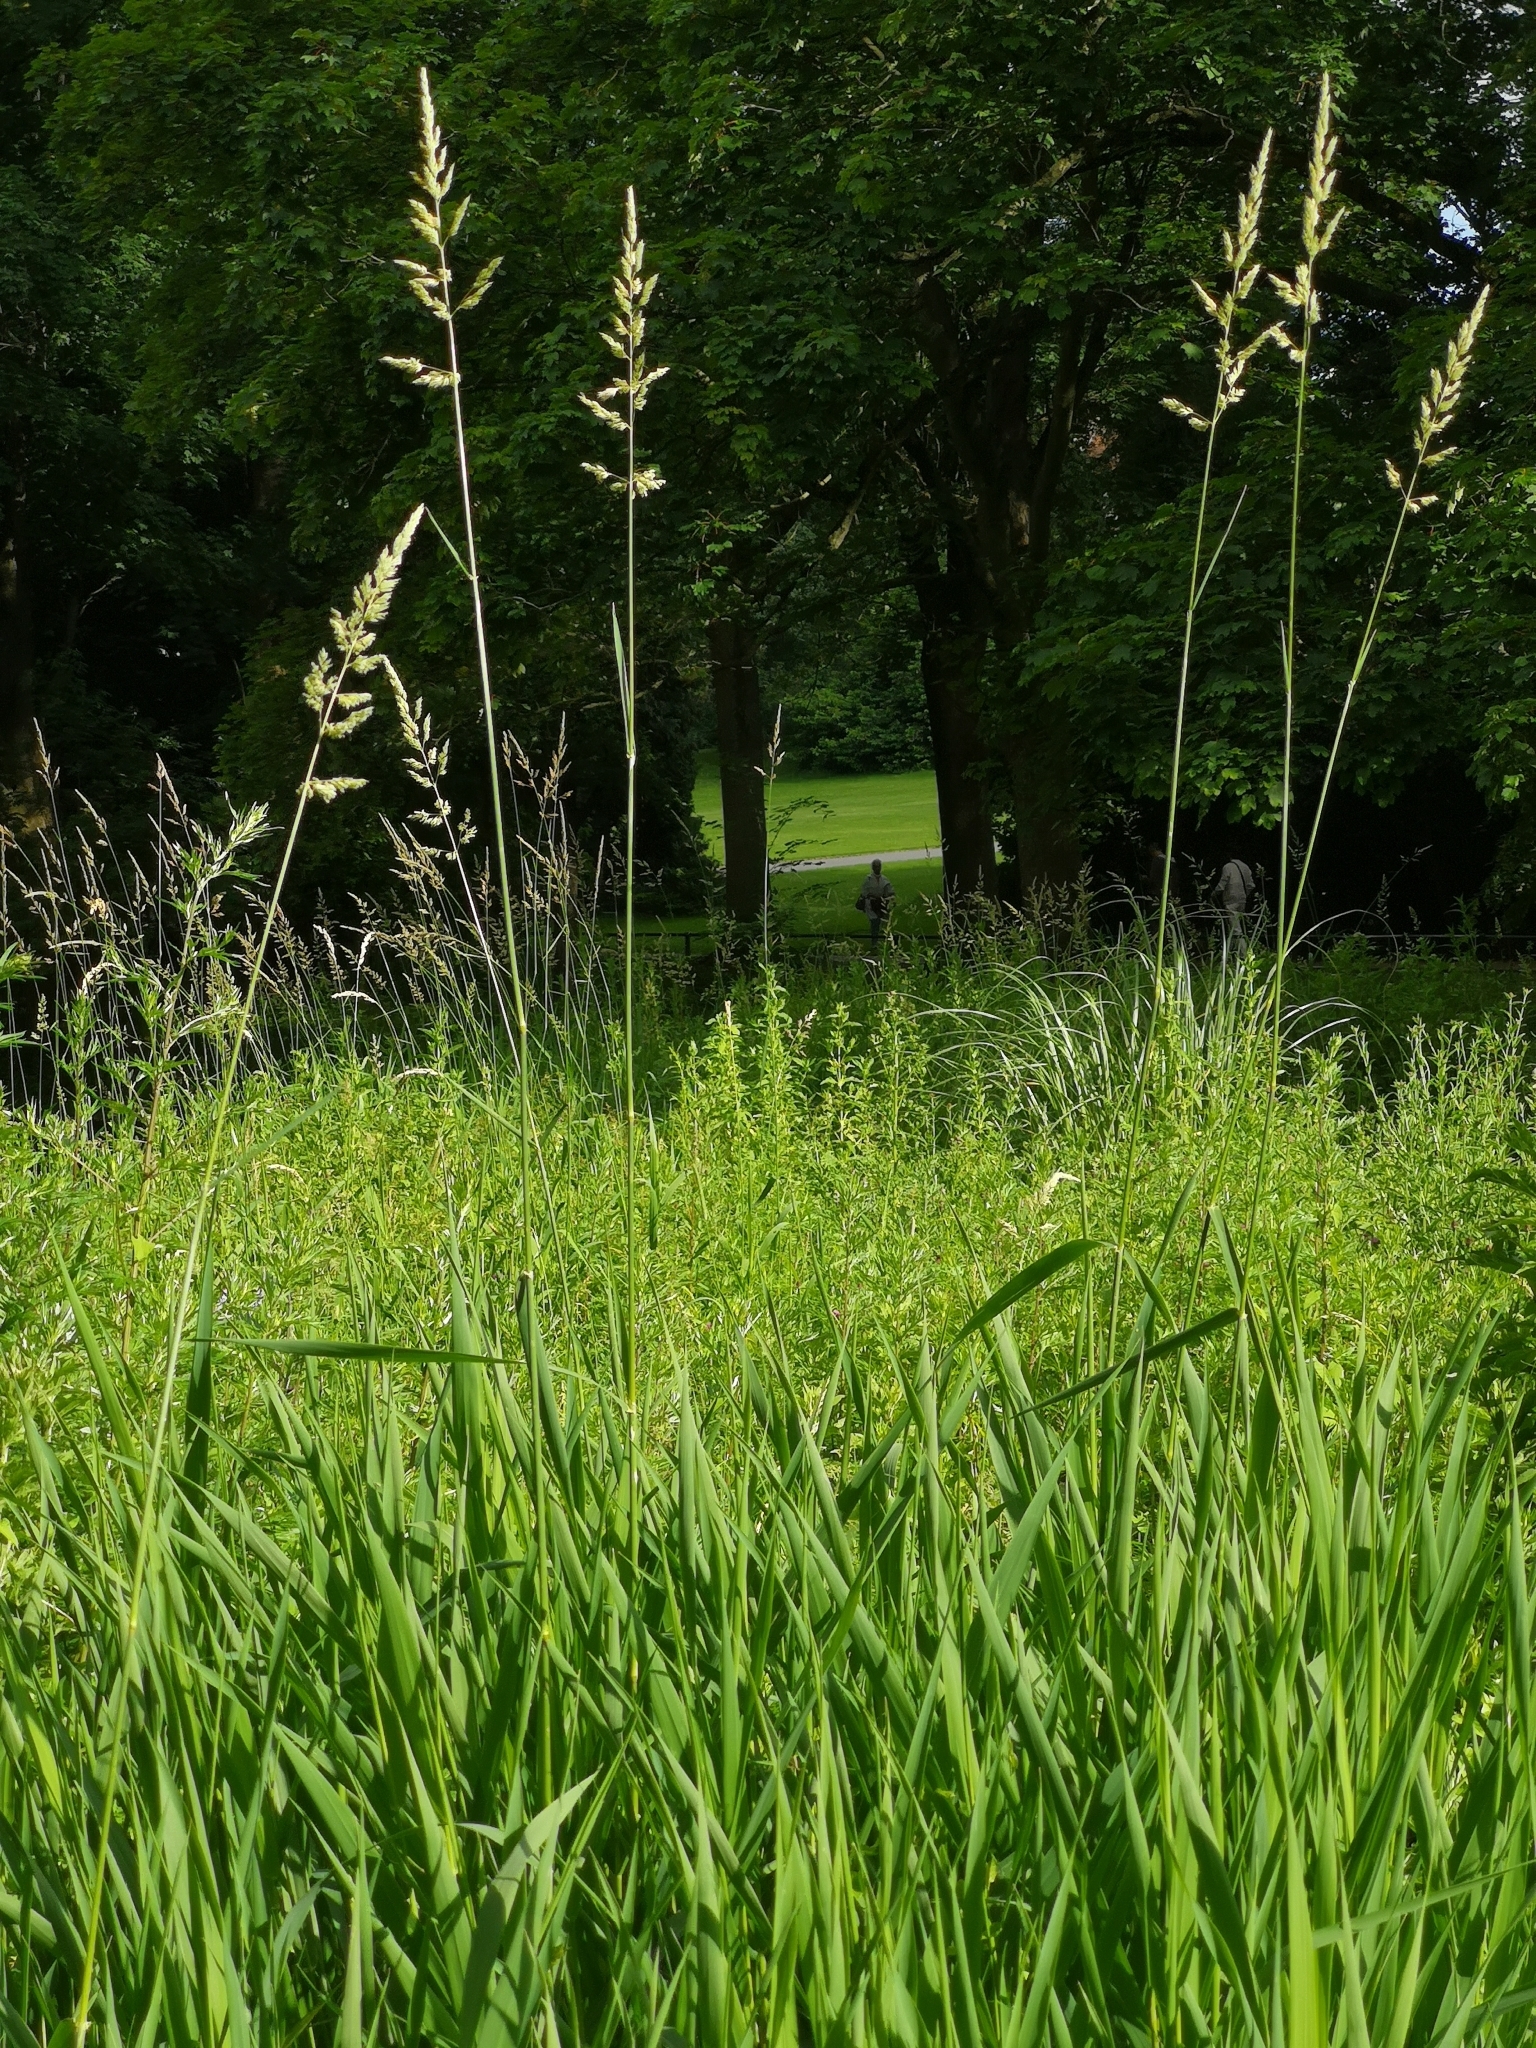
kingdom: Plantae
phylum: Tracheophyta
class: Liliopsida
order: Poales
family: Poaceae
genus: Phalaris
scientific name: Phalaris arundinacea
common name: Reed canary-grass
